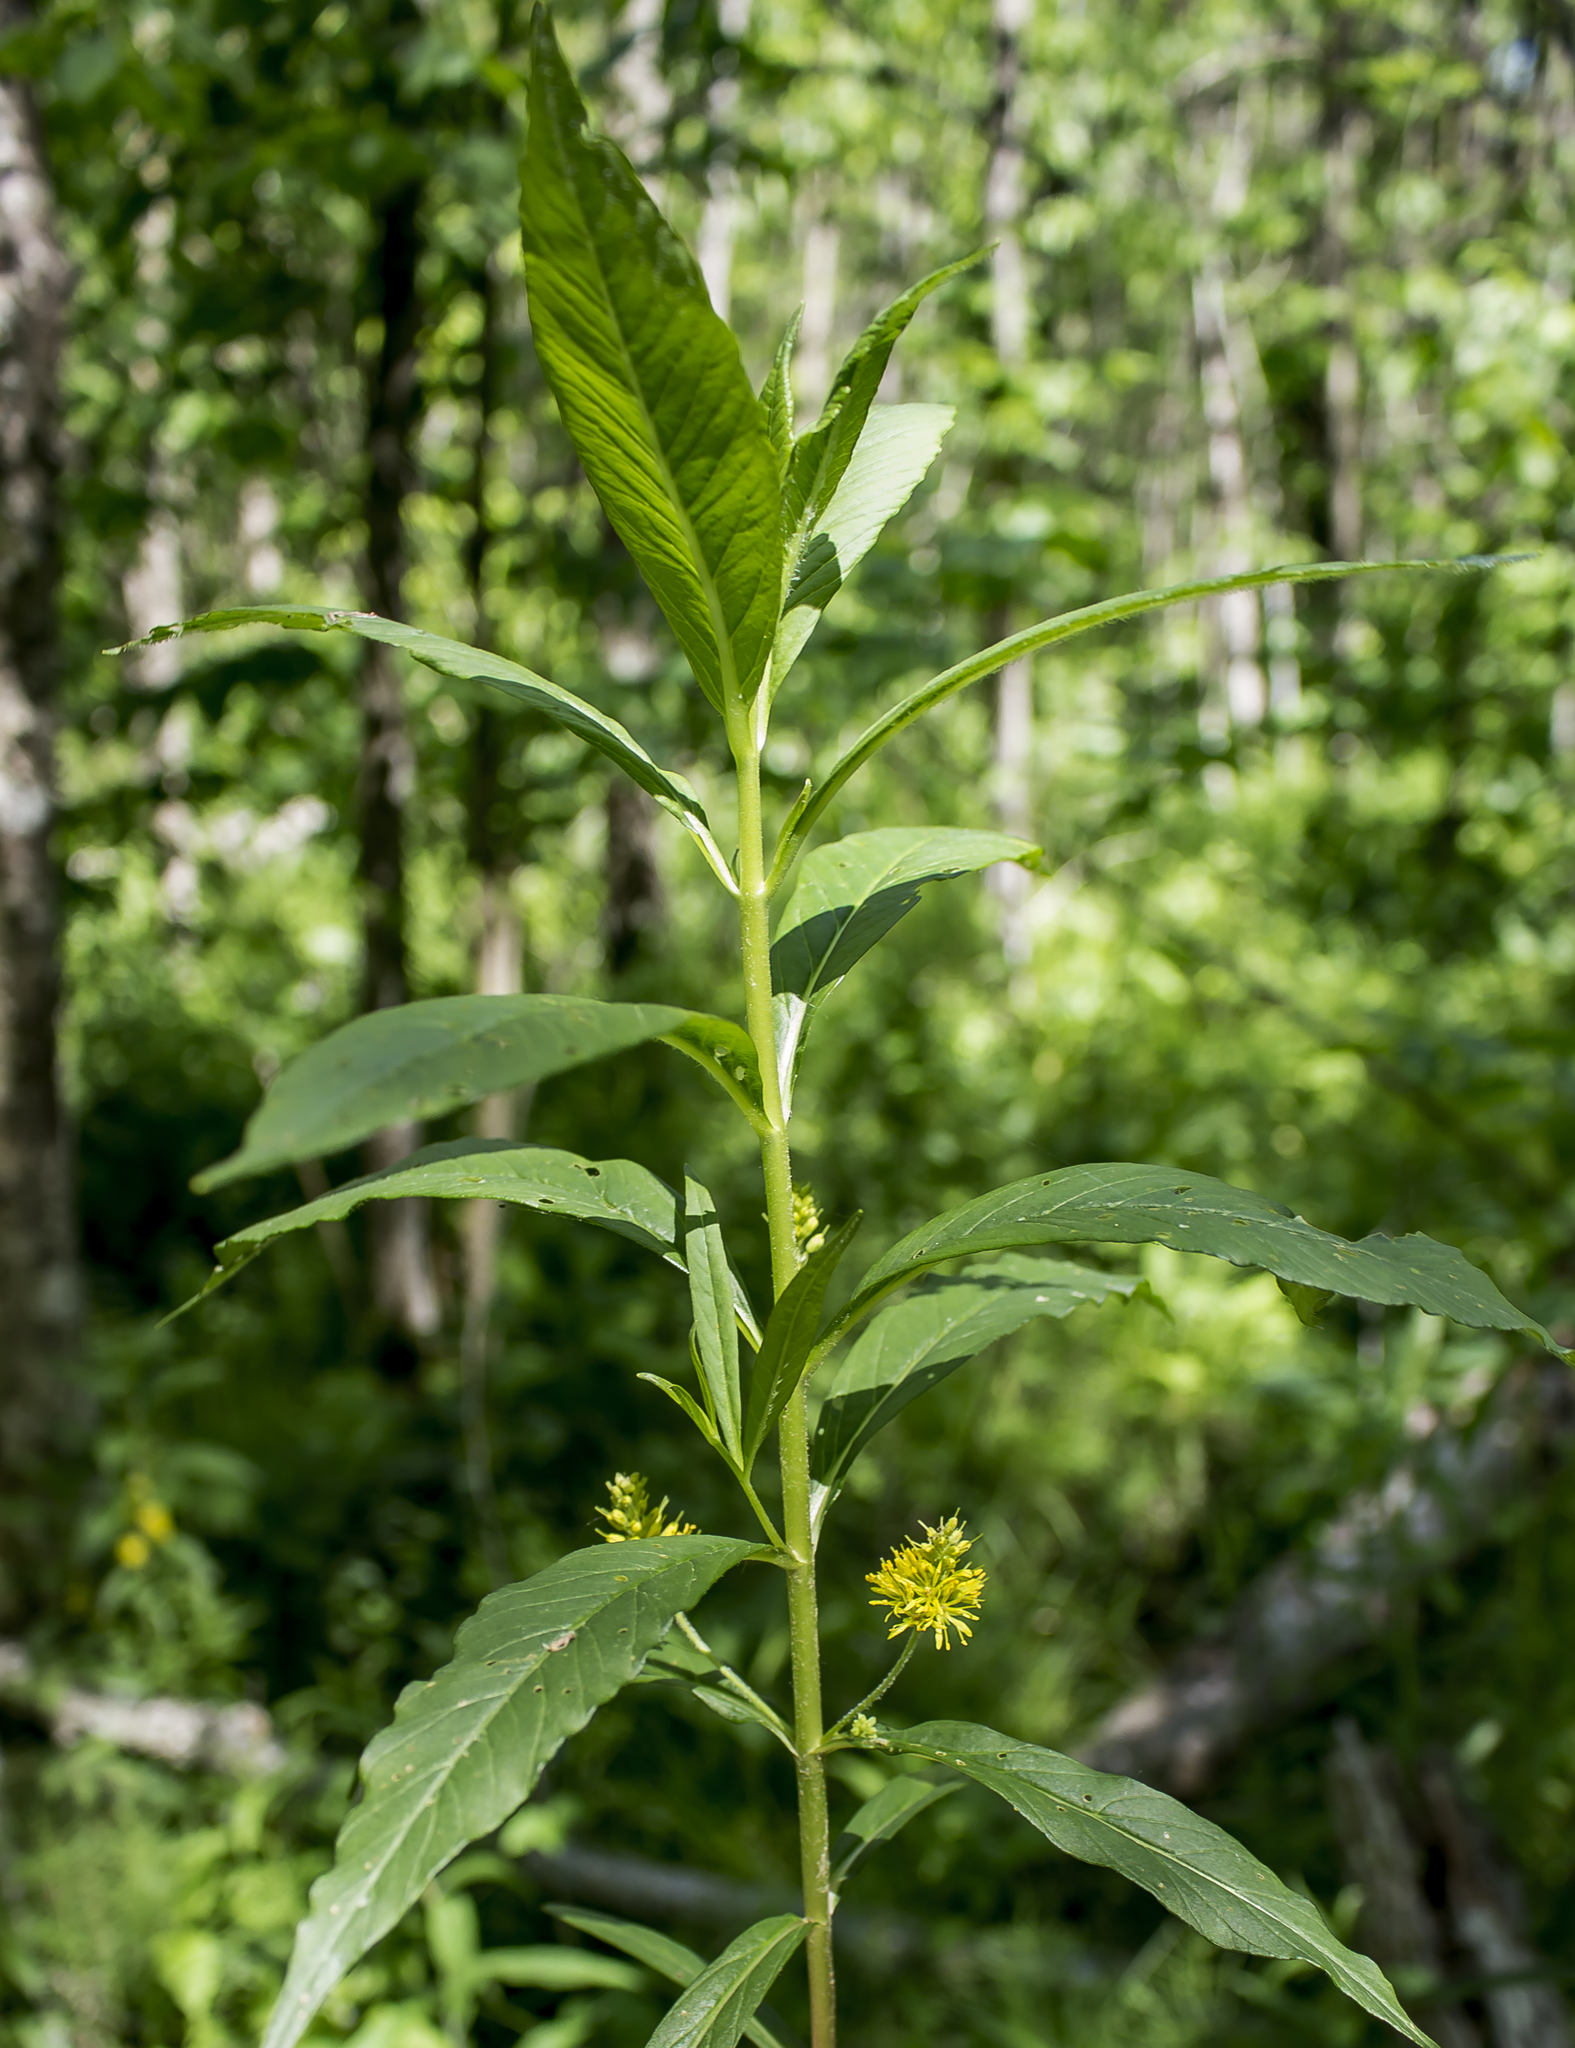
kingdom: Plantae
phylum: Tracheophyta
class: Magnoliopsida
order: Ericales
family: Primulaceae
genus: Lysimachia
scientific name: Lysimachia thyrsiflora
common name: Tufted loosestrife
